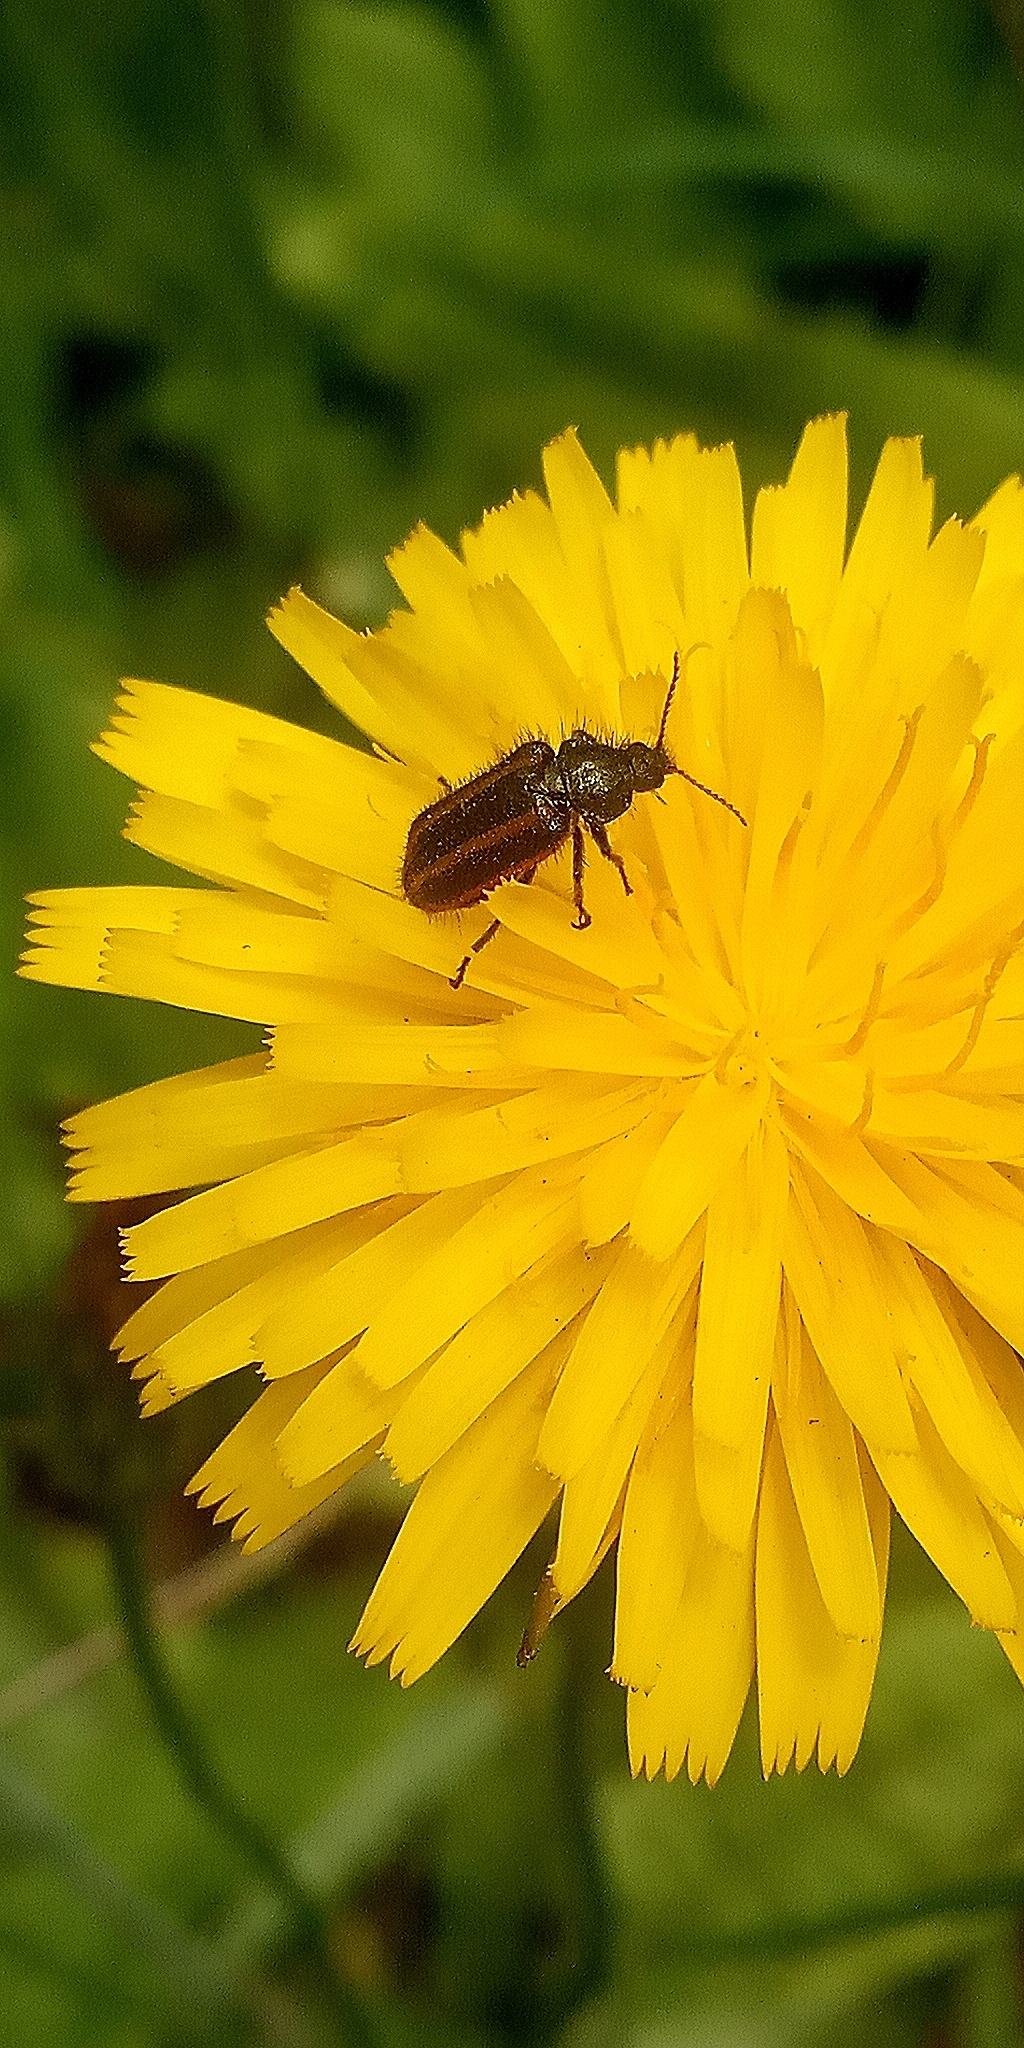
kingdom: Animalia
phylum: Arthropoda
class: Insecta
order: Coleoptera
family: Melyridae
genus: Astylus
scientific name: Astylus
